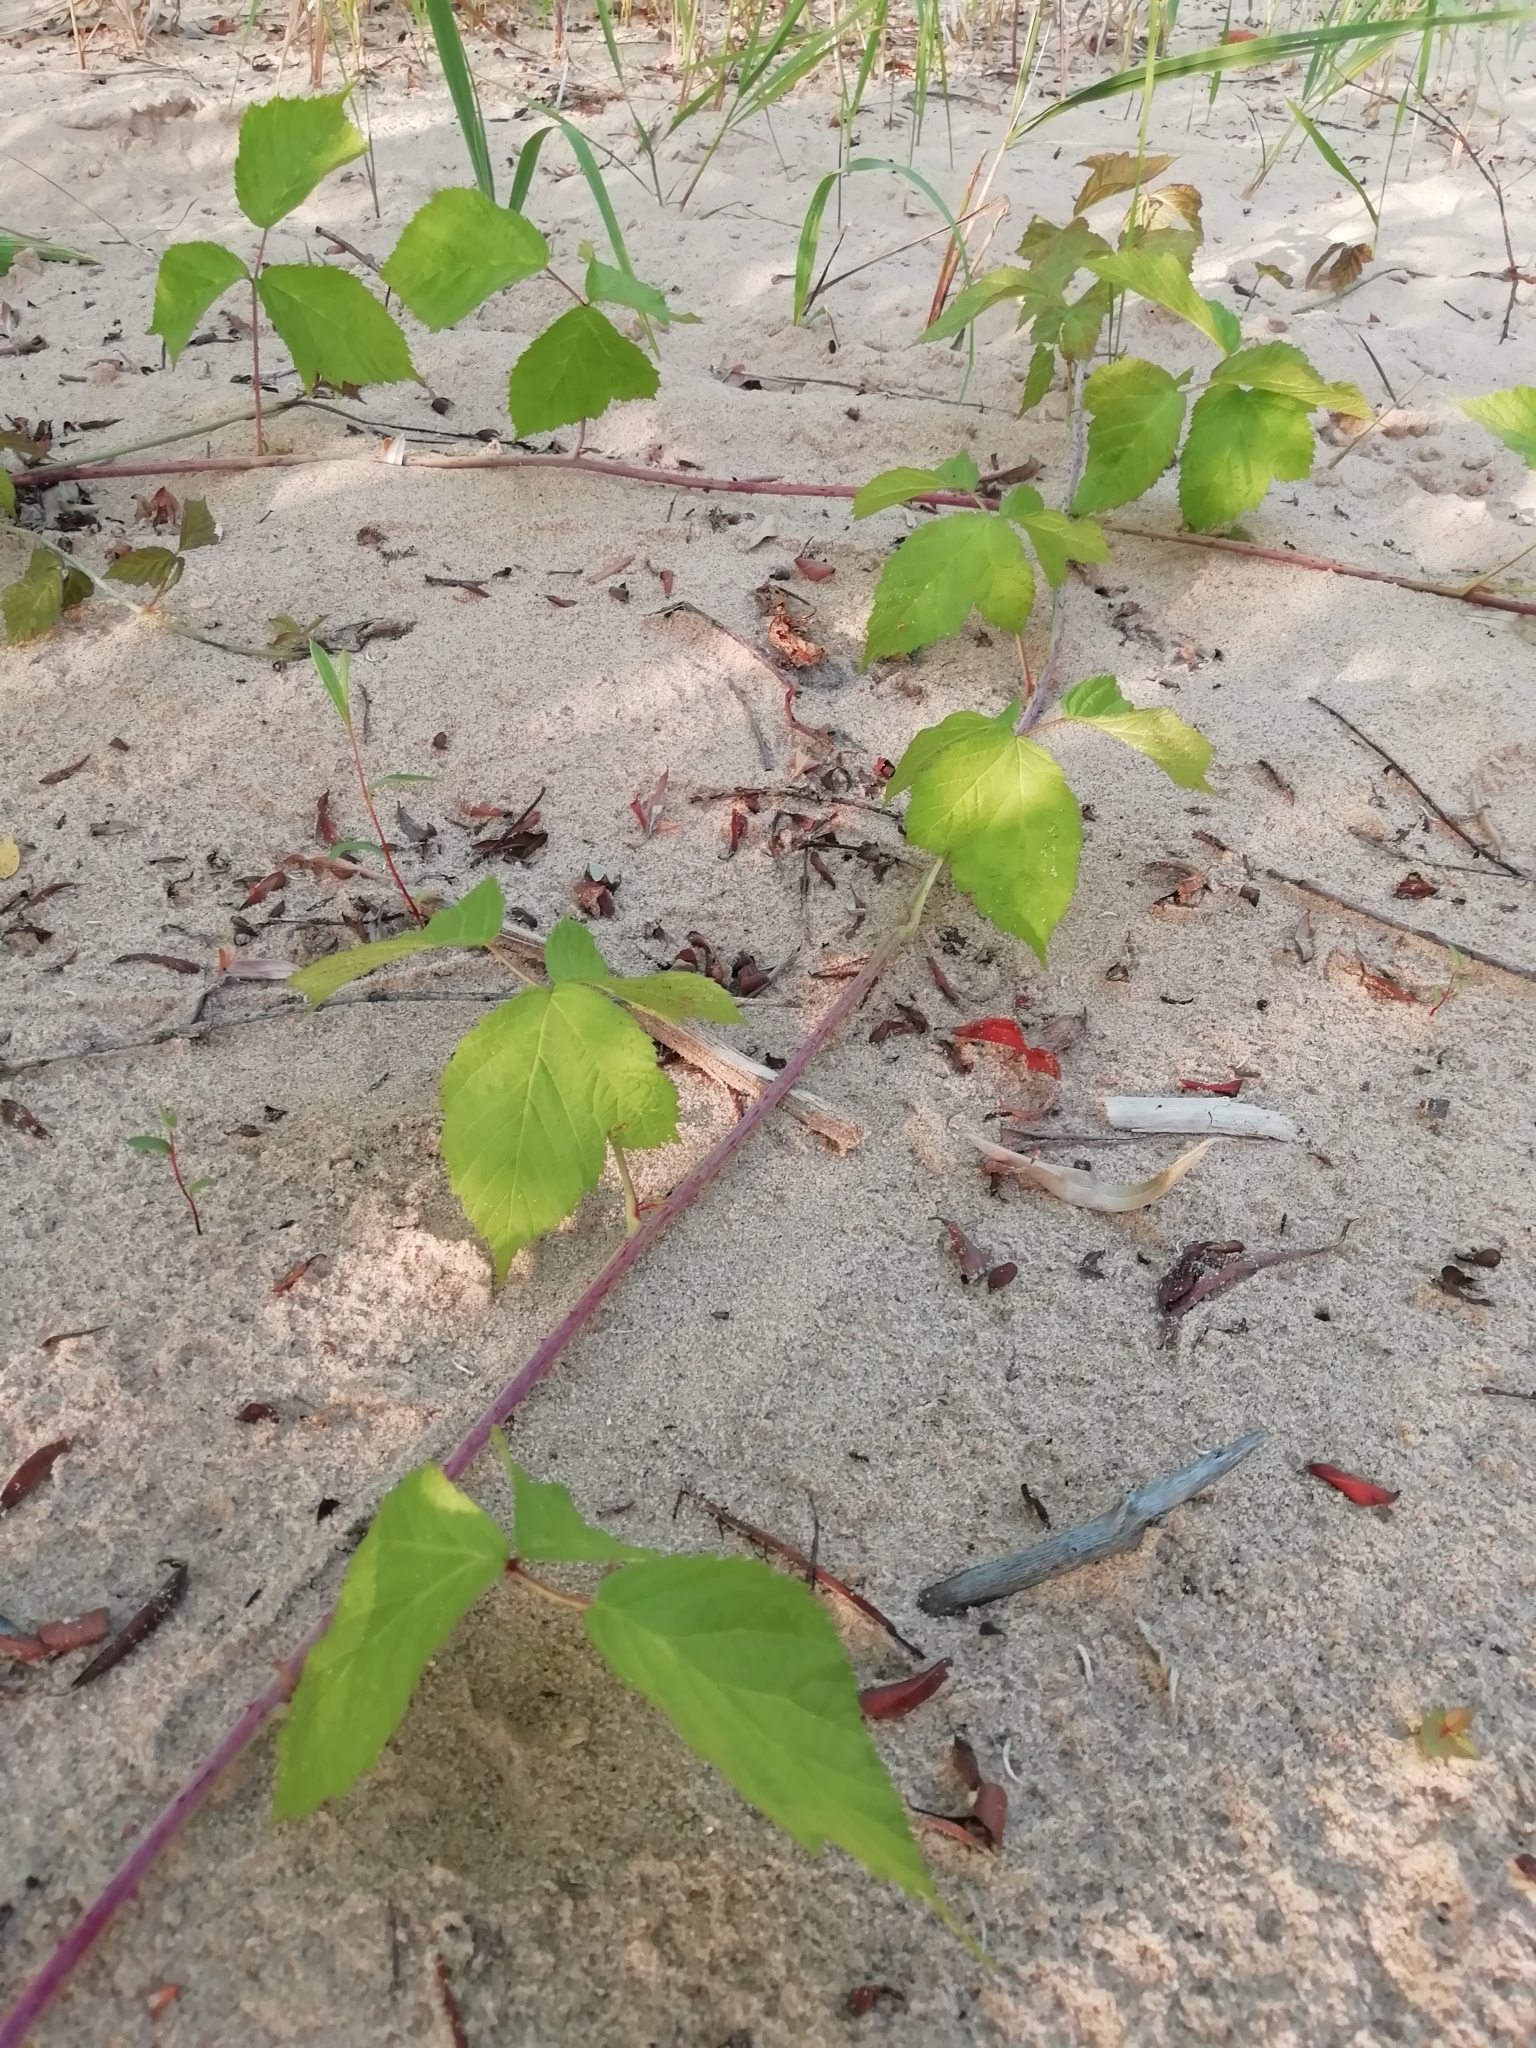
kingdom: Plantae
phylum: Tracheophyta
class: Magnoliopsida
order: Rosales
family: Rosaceae
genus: Rubus
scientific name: Rubus caesius
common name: Dewberry
